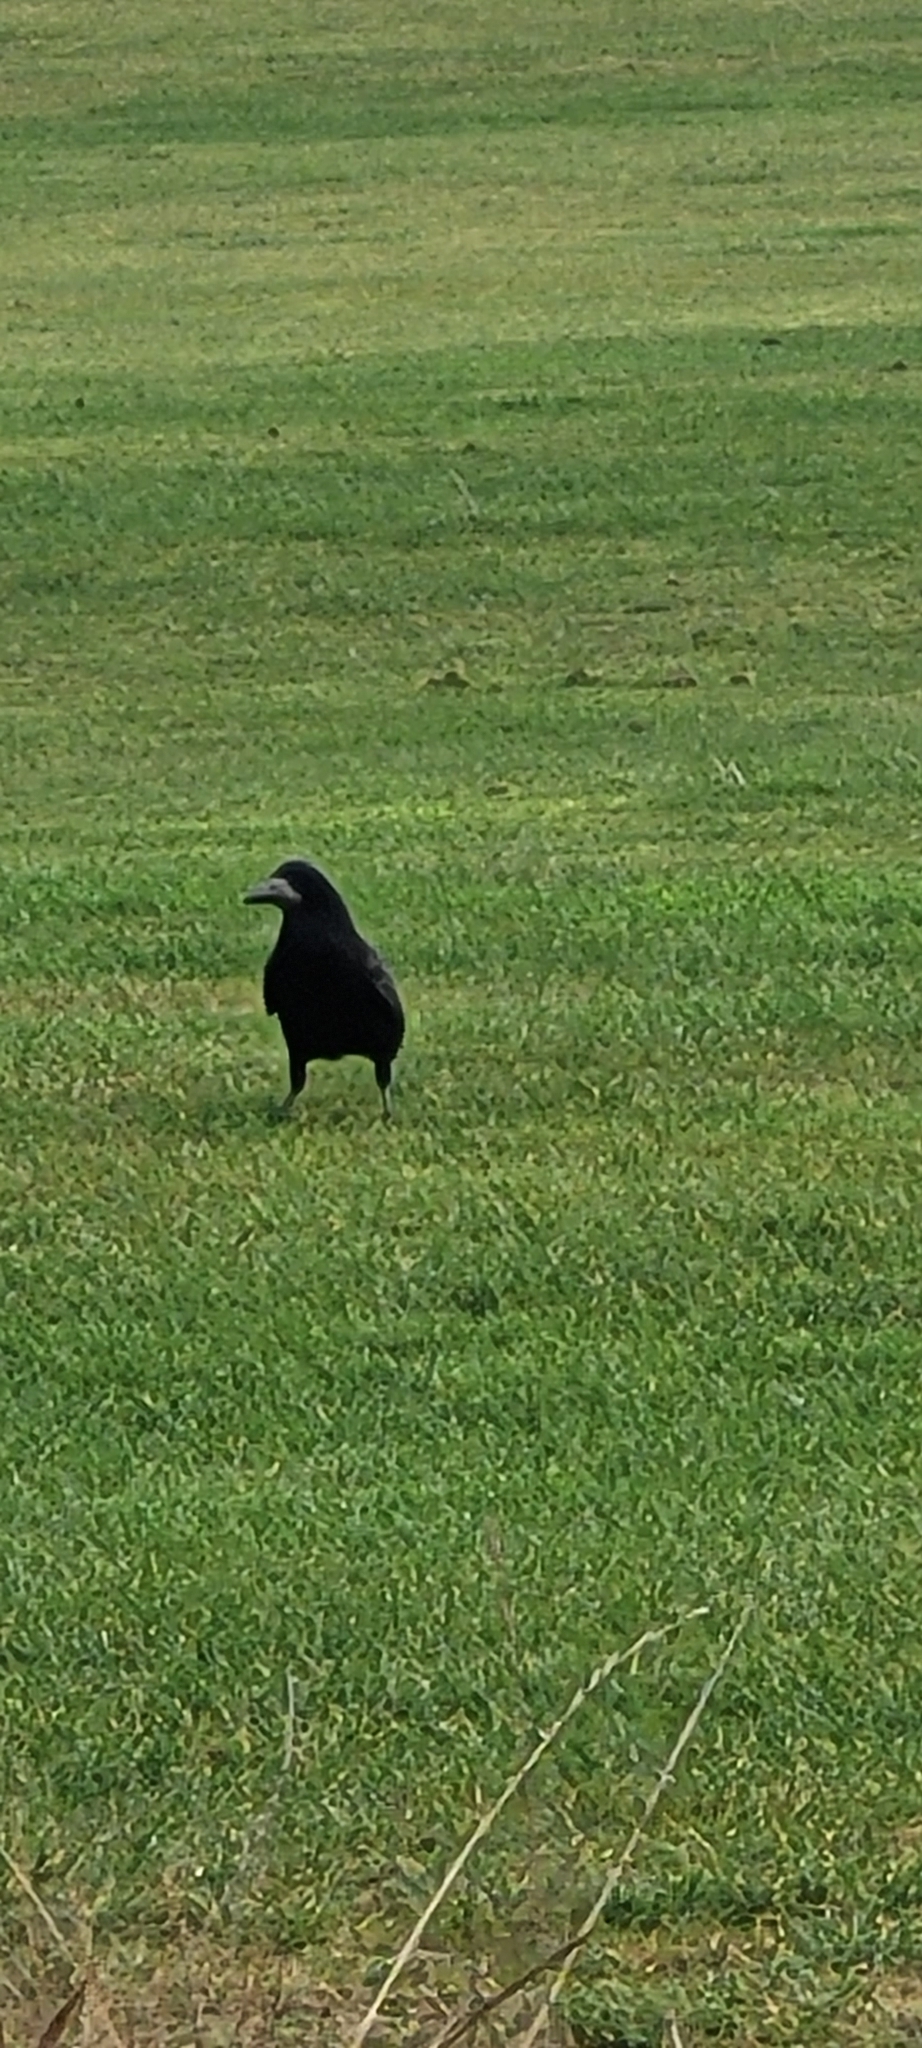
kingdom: Animalia
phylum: Chordata
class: Aves
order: Passeriformes
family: Corvidae
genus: Corvus
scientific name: Corvus frugilegus
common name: Rook
